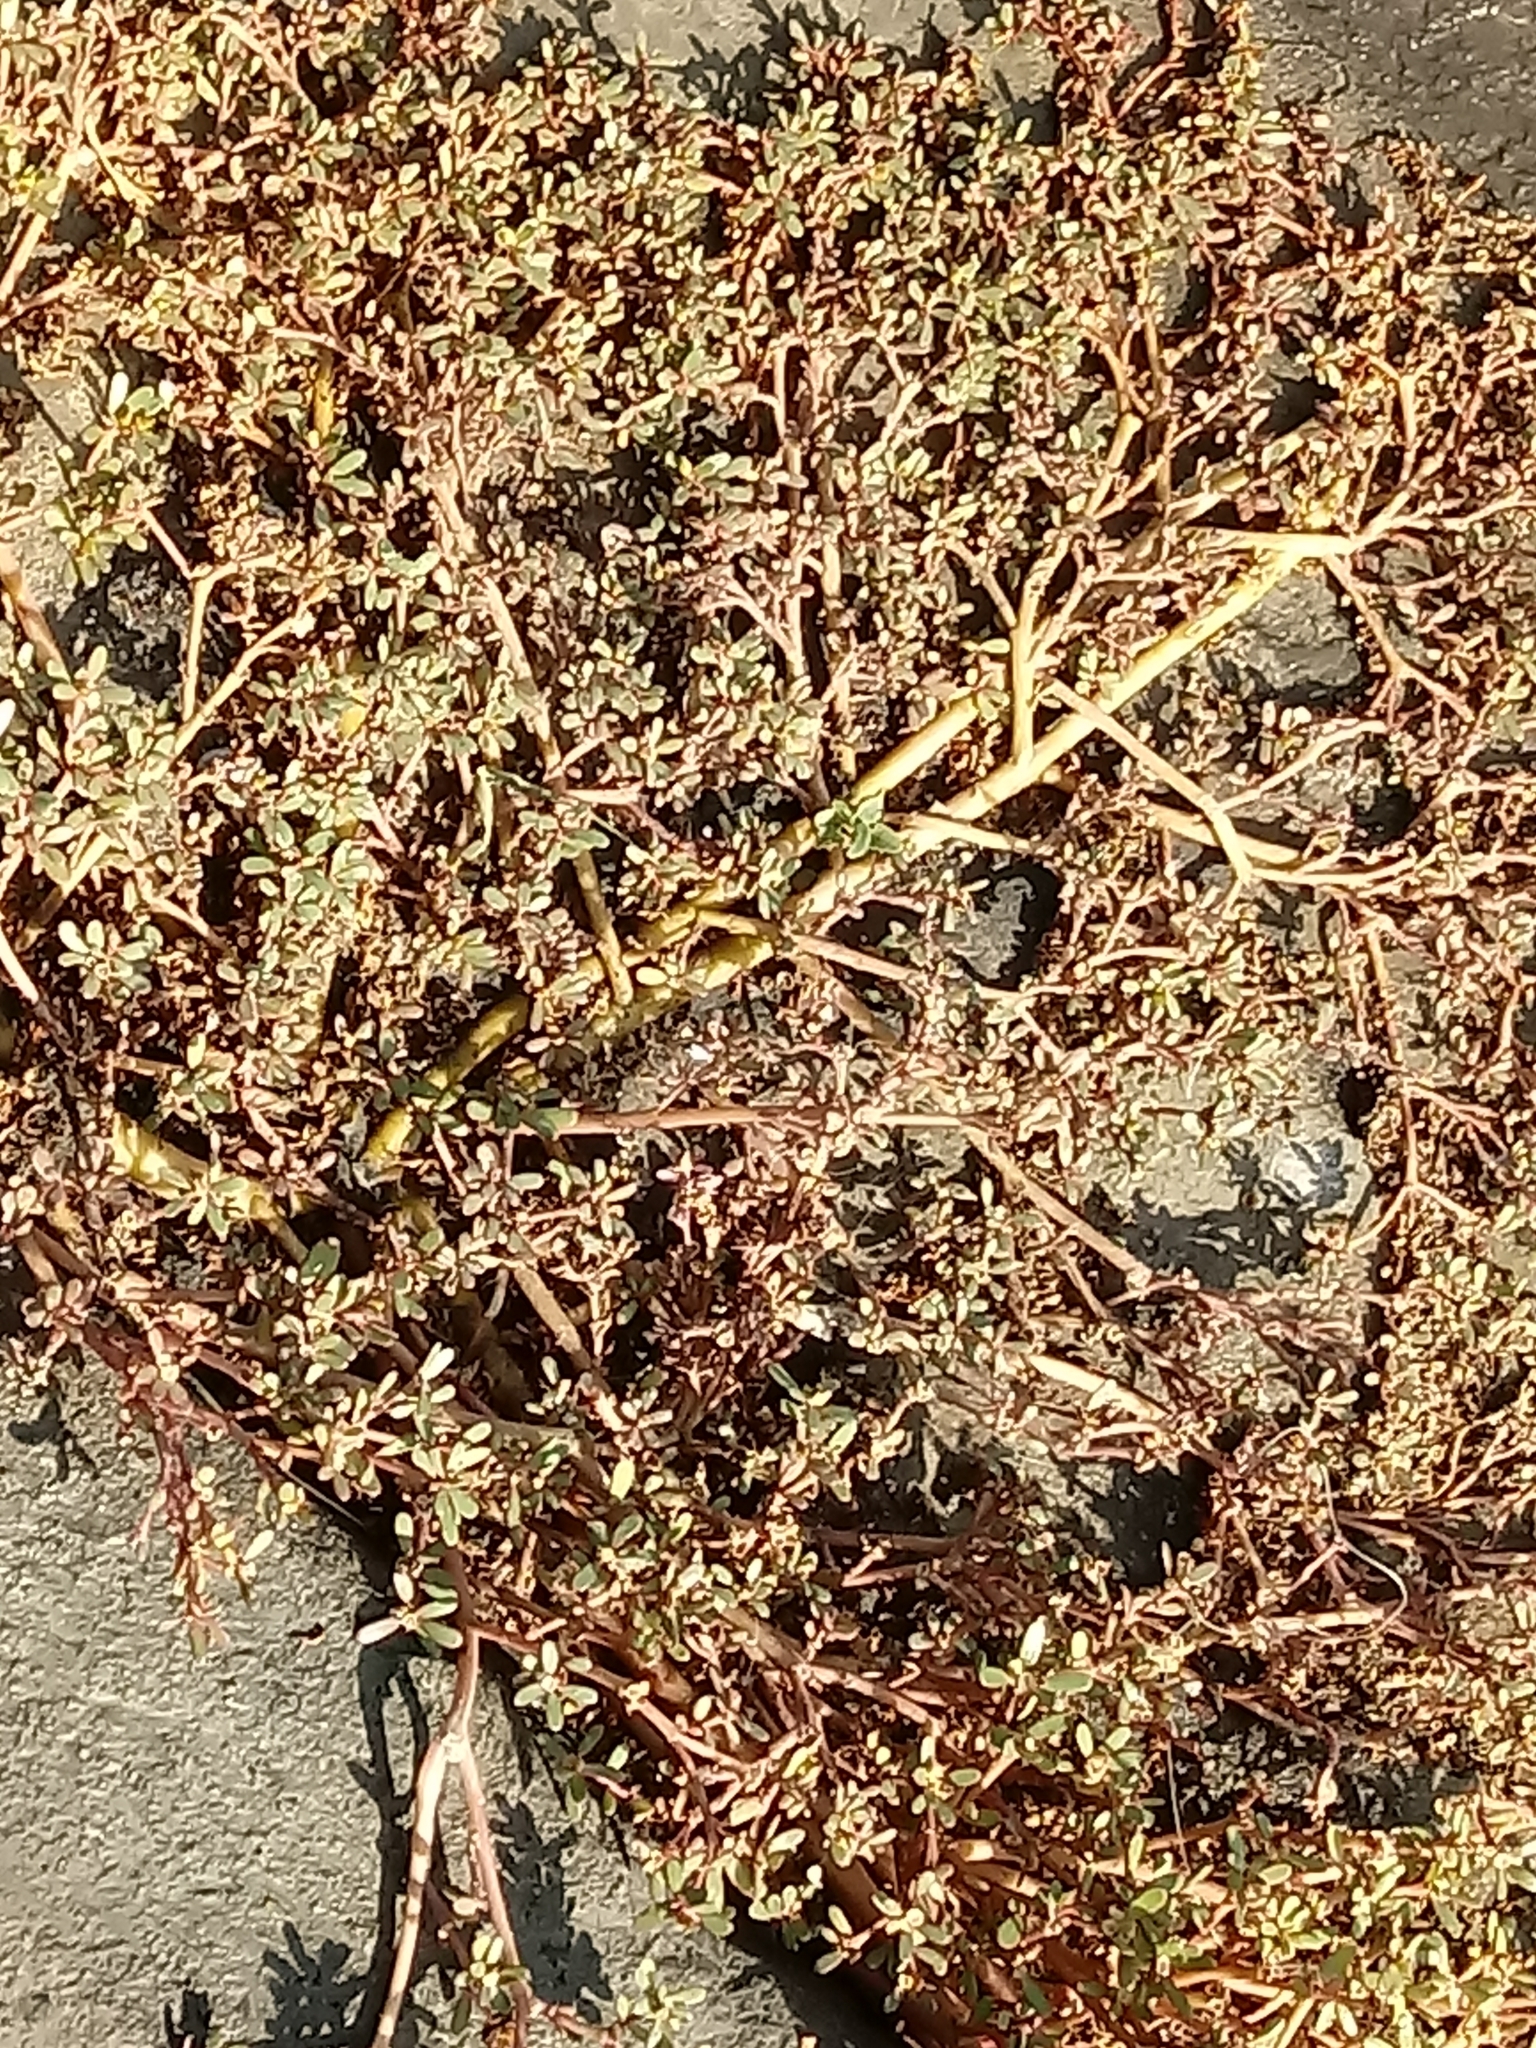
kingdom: Plantae
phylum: Tracheophyta
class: Magnoliopsida
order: Caryophyllales
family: Portulacaceae
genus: Portulaca
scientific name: Portulaca oleracea
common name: Common purslane
